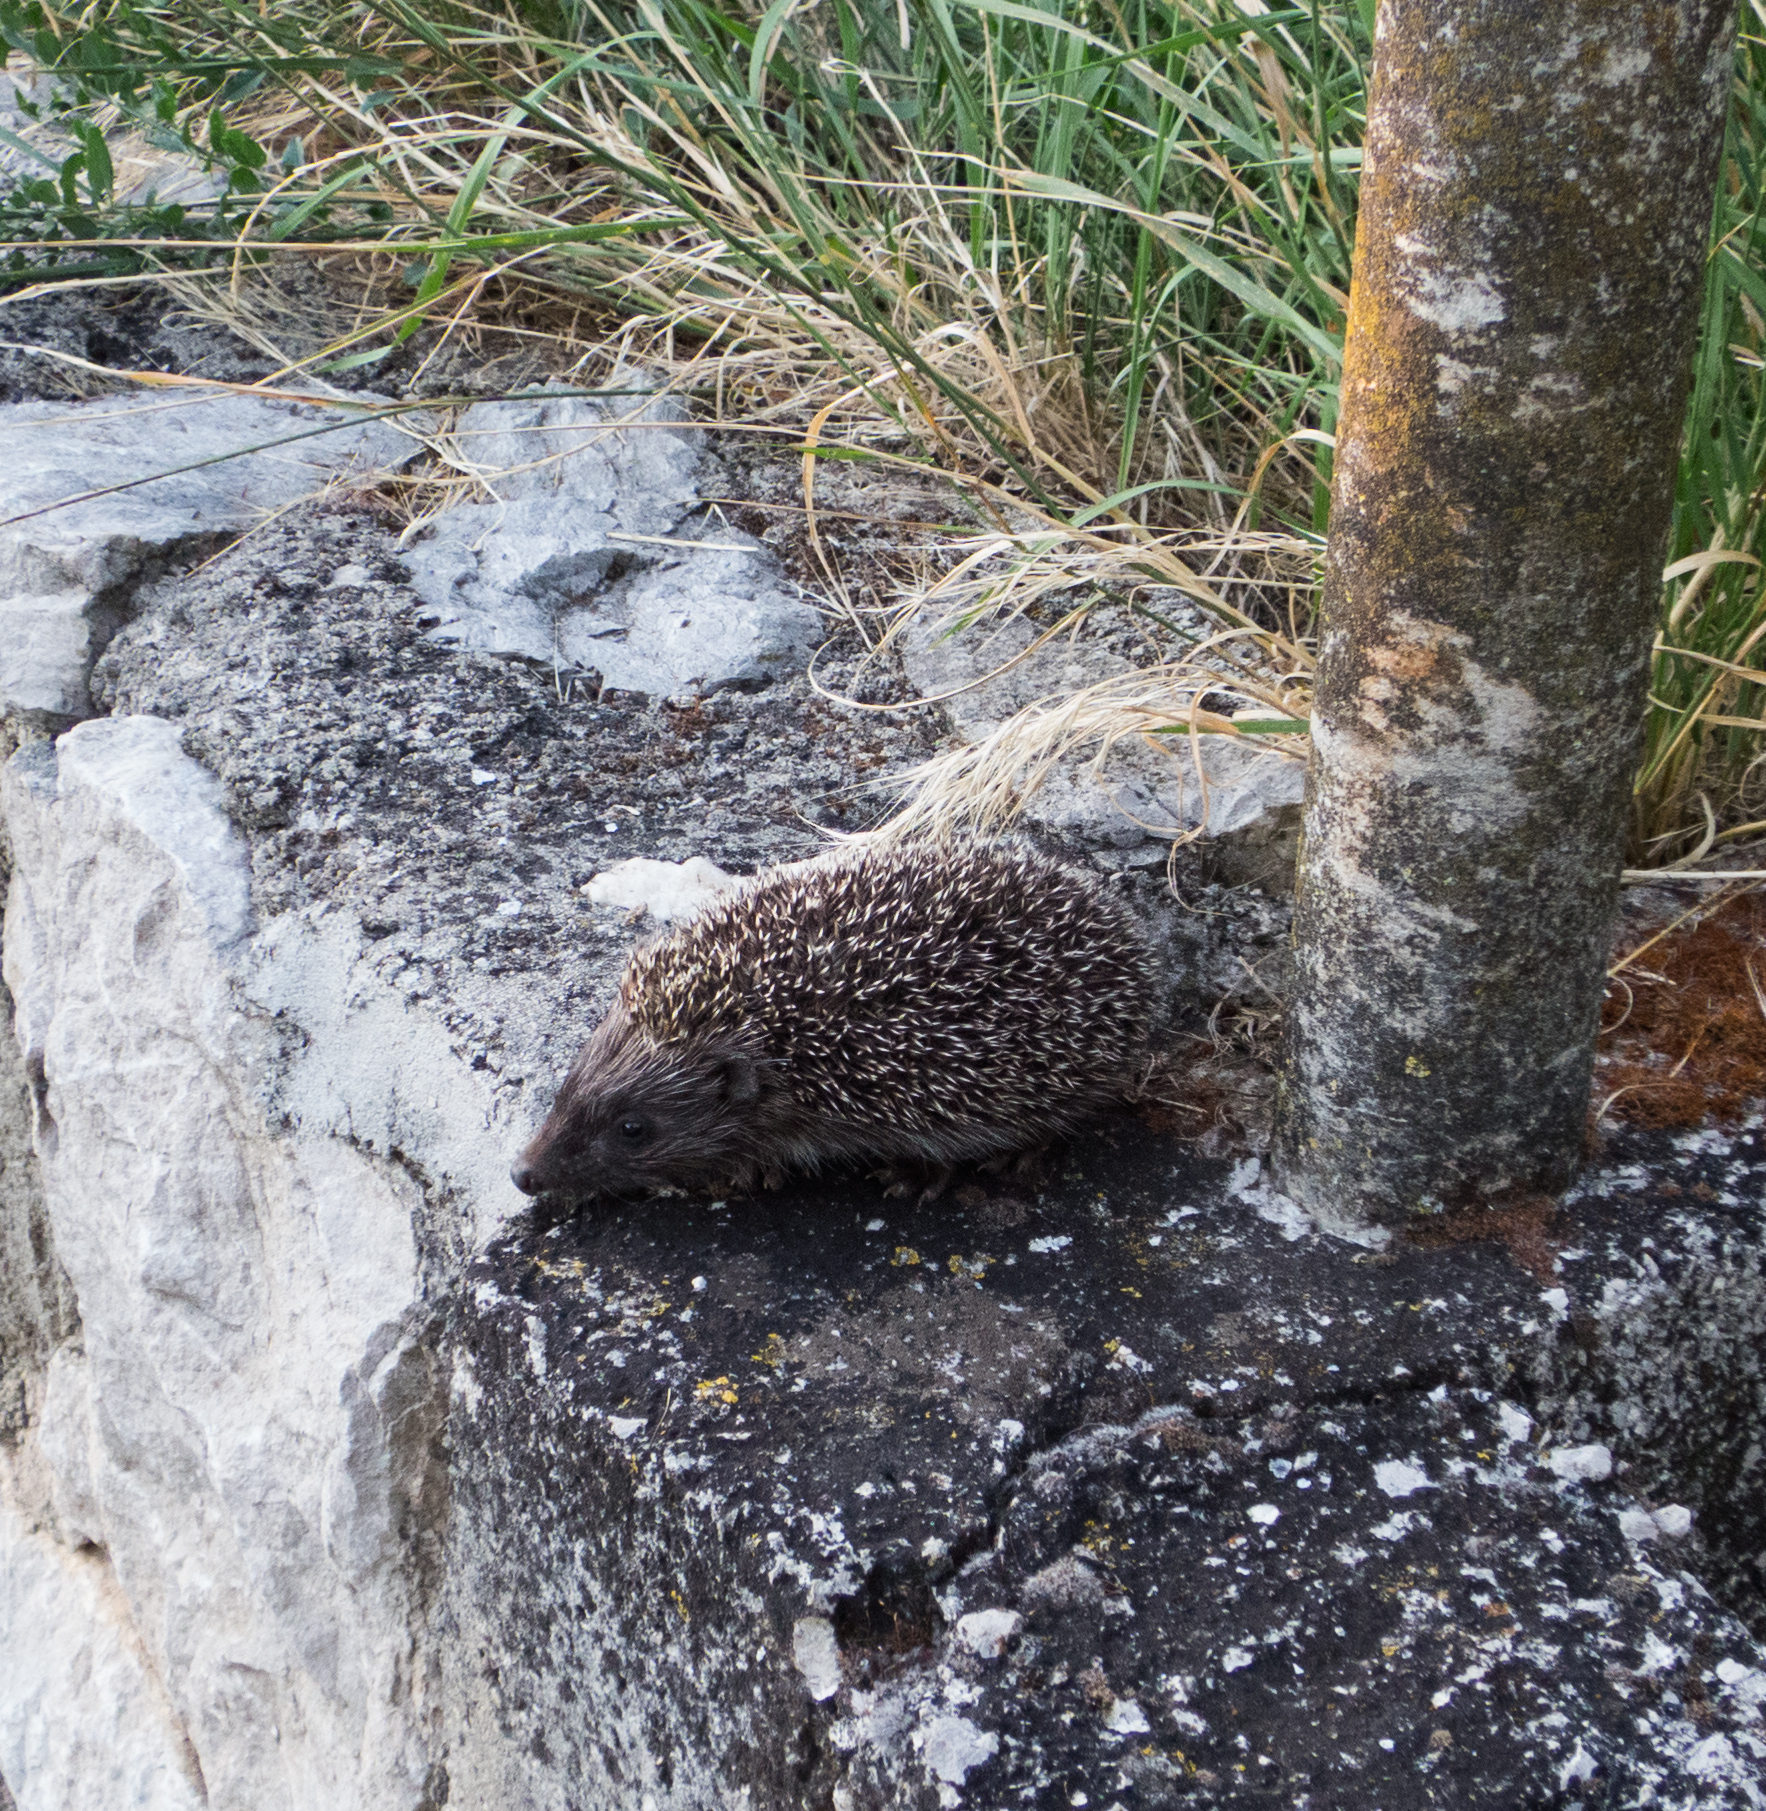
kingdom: Animalia
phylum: Chordata
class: Mammalia
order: Erinaceomorpha
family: Erinaceidae
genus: Erinaceus
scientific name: Erinaceus roumanicus
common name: Northern white-breasted hedgehog
